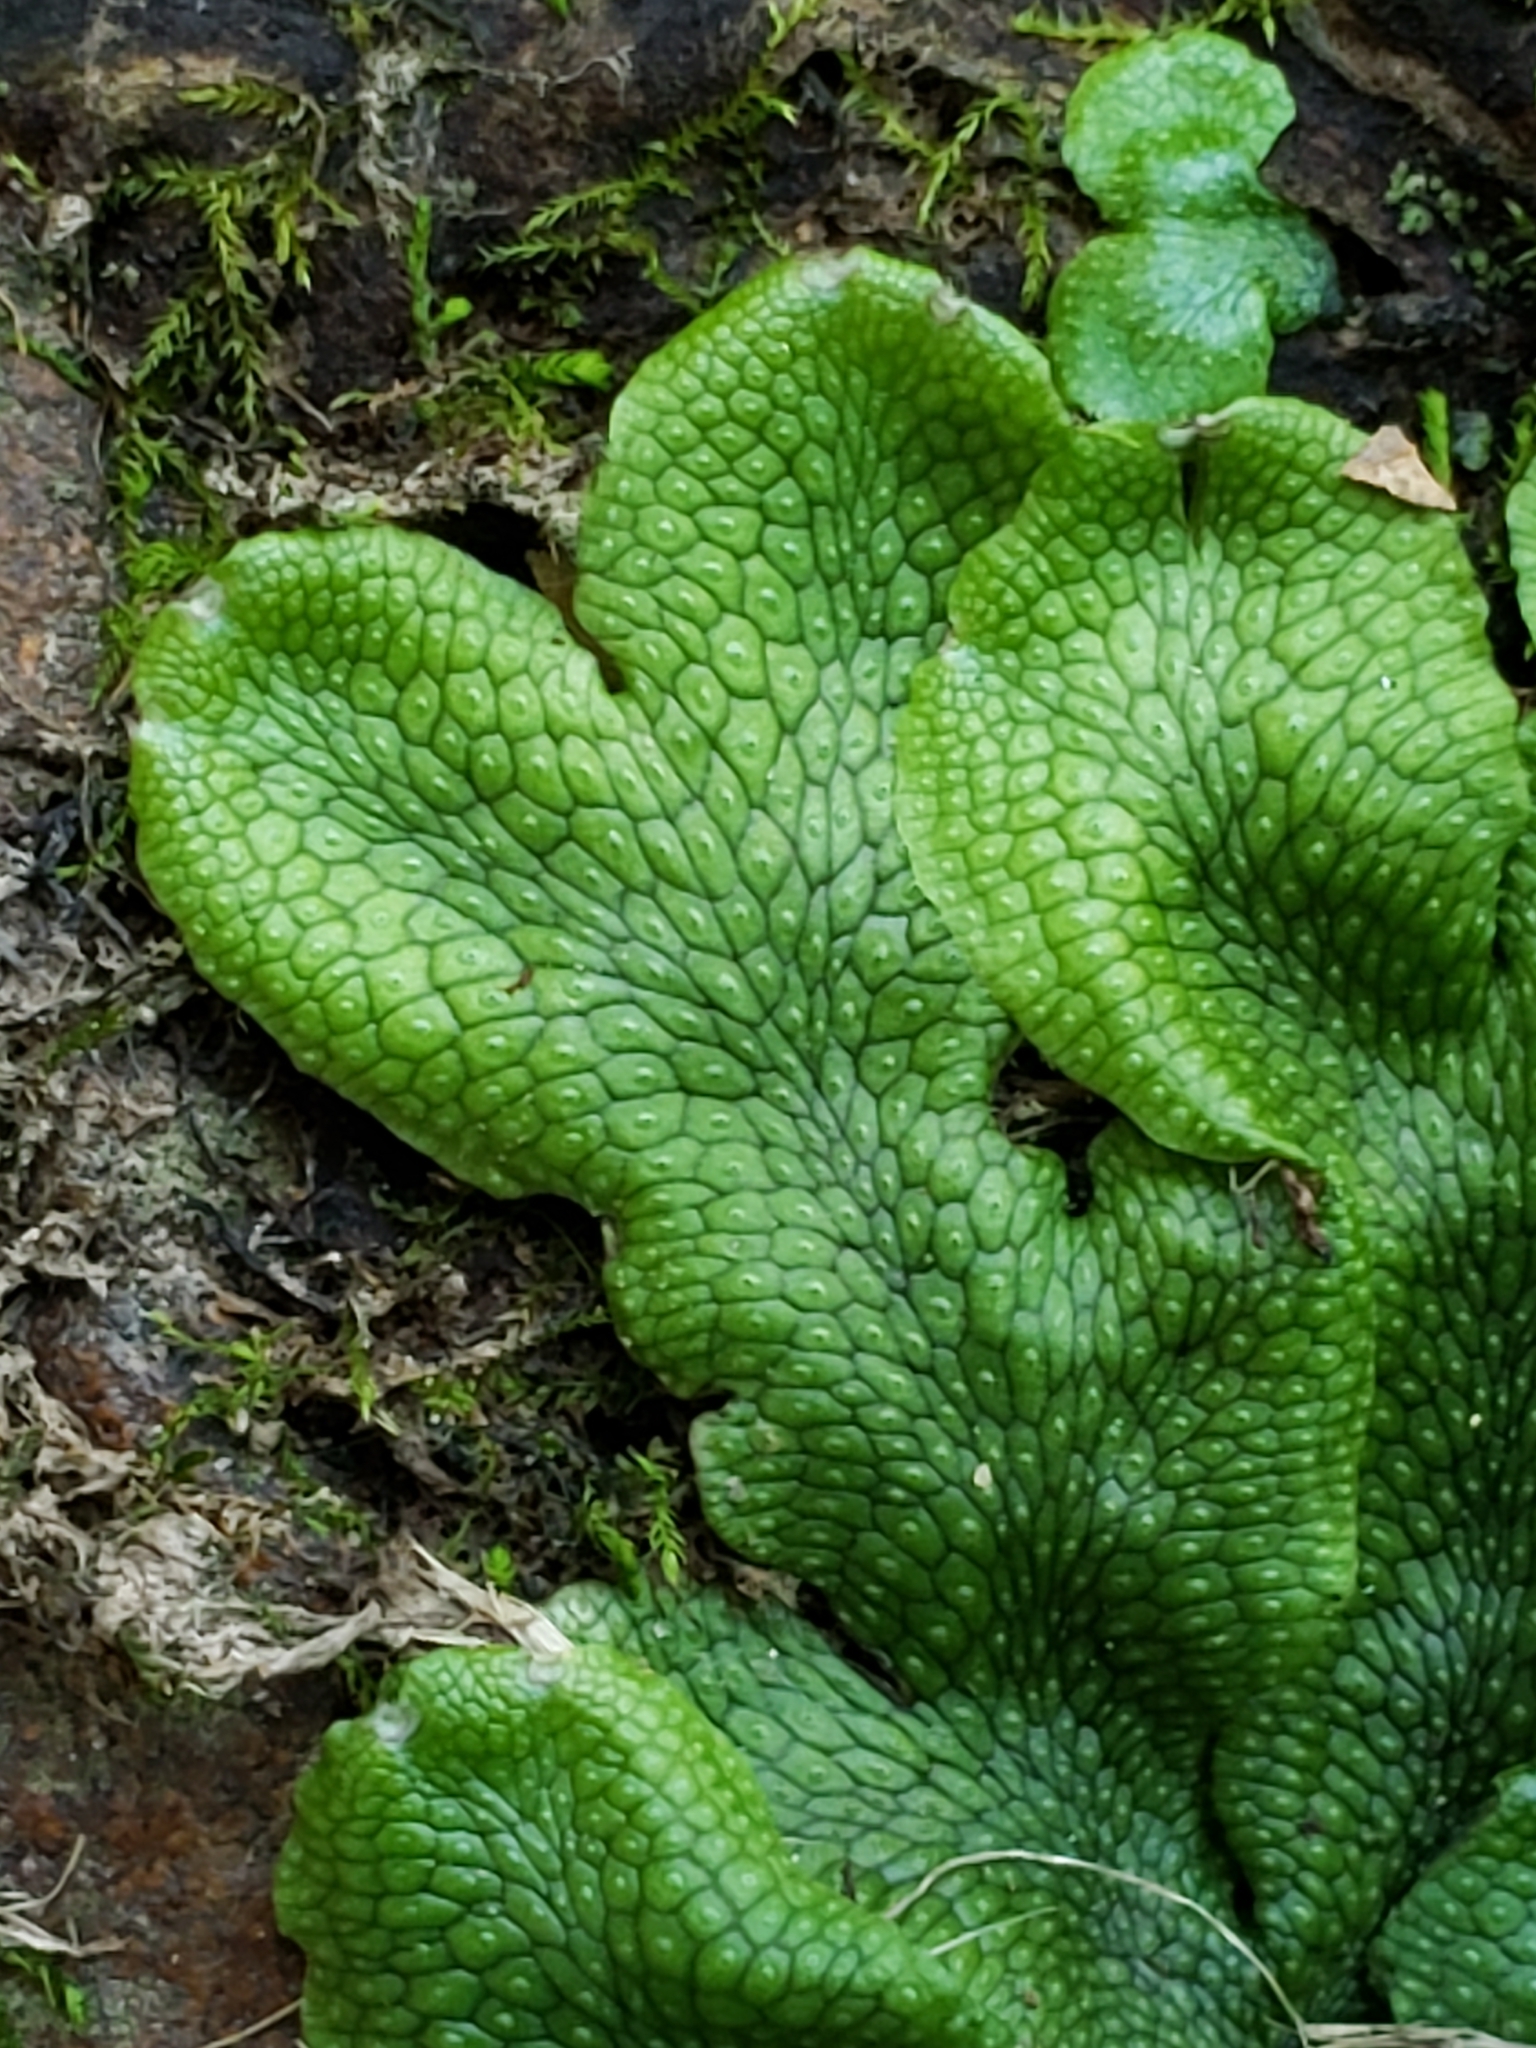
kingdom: Plantae
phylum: Marchantiophyta
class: Marchantiopsida
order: Marchantiales
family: Conocephalaceae
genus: Conocephalum
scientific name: Conocephalum salebrosum
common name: Cat-tongue liverwort
